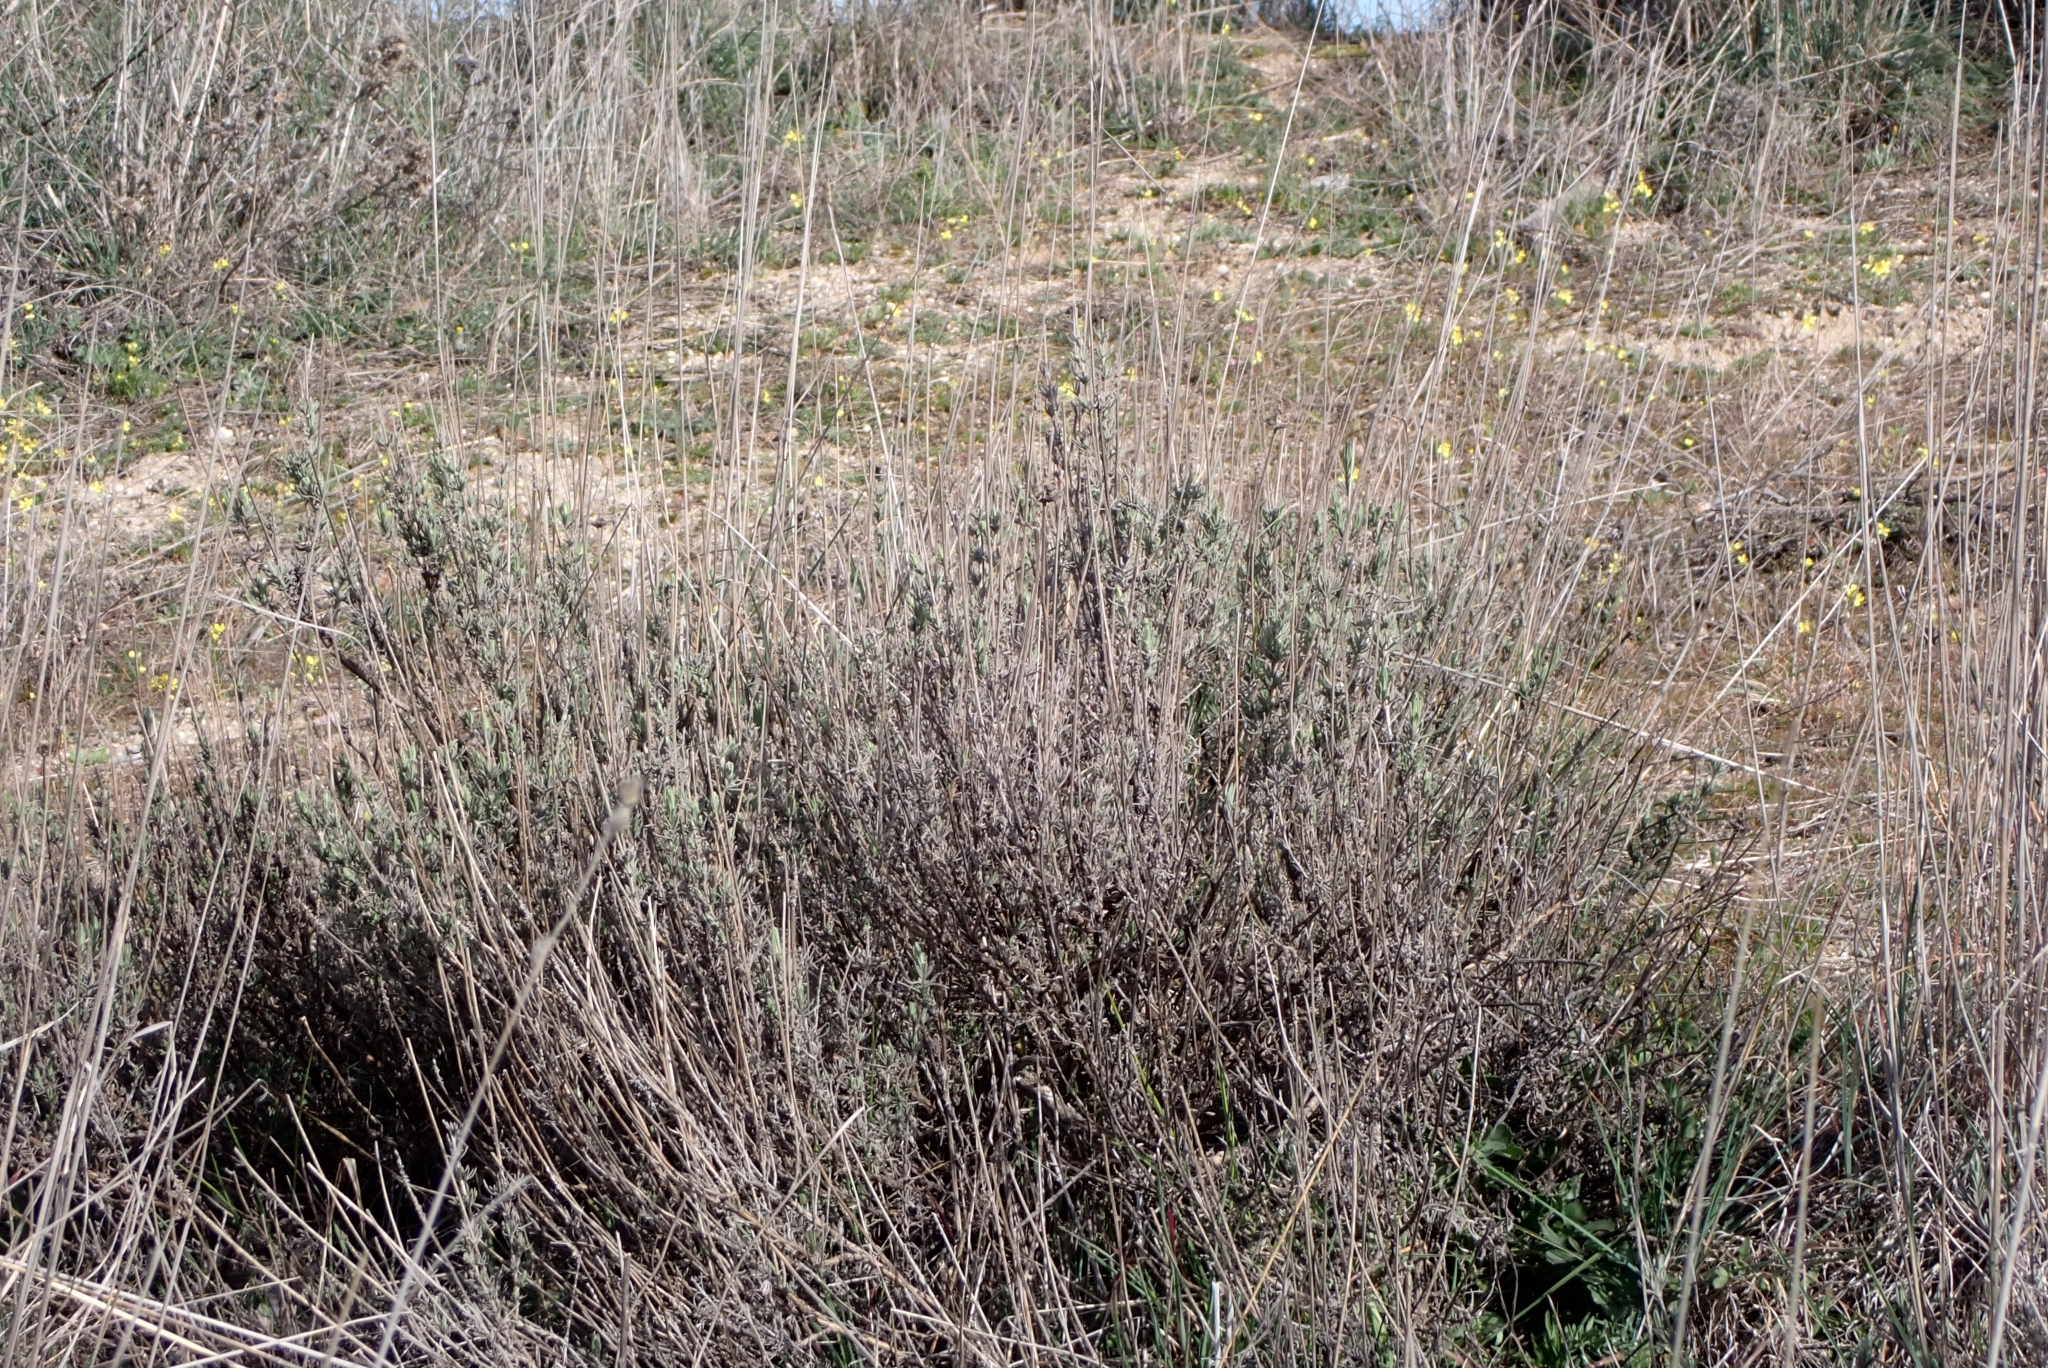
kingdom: Plantae
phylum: Tracheophyta
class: Magnoliopsida
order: Lamiales
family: Lamiaceae
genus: Lavandula
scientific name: Lavandula pedunculata
